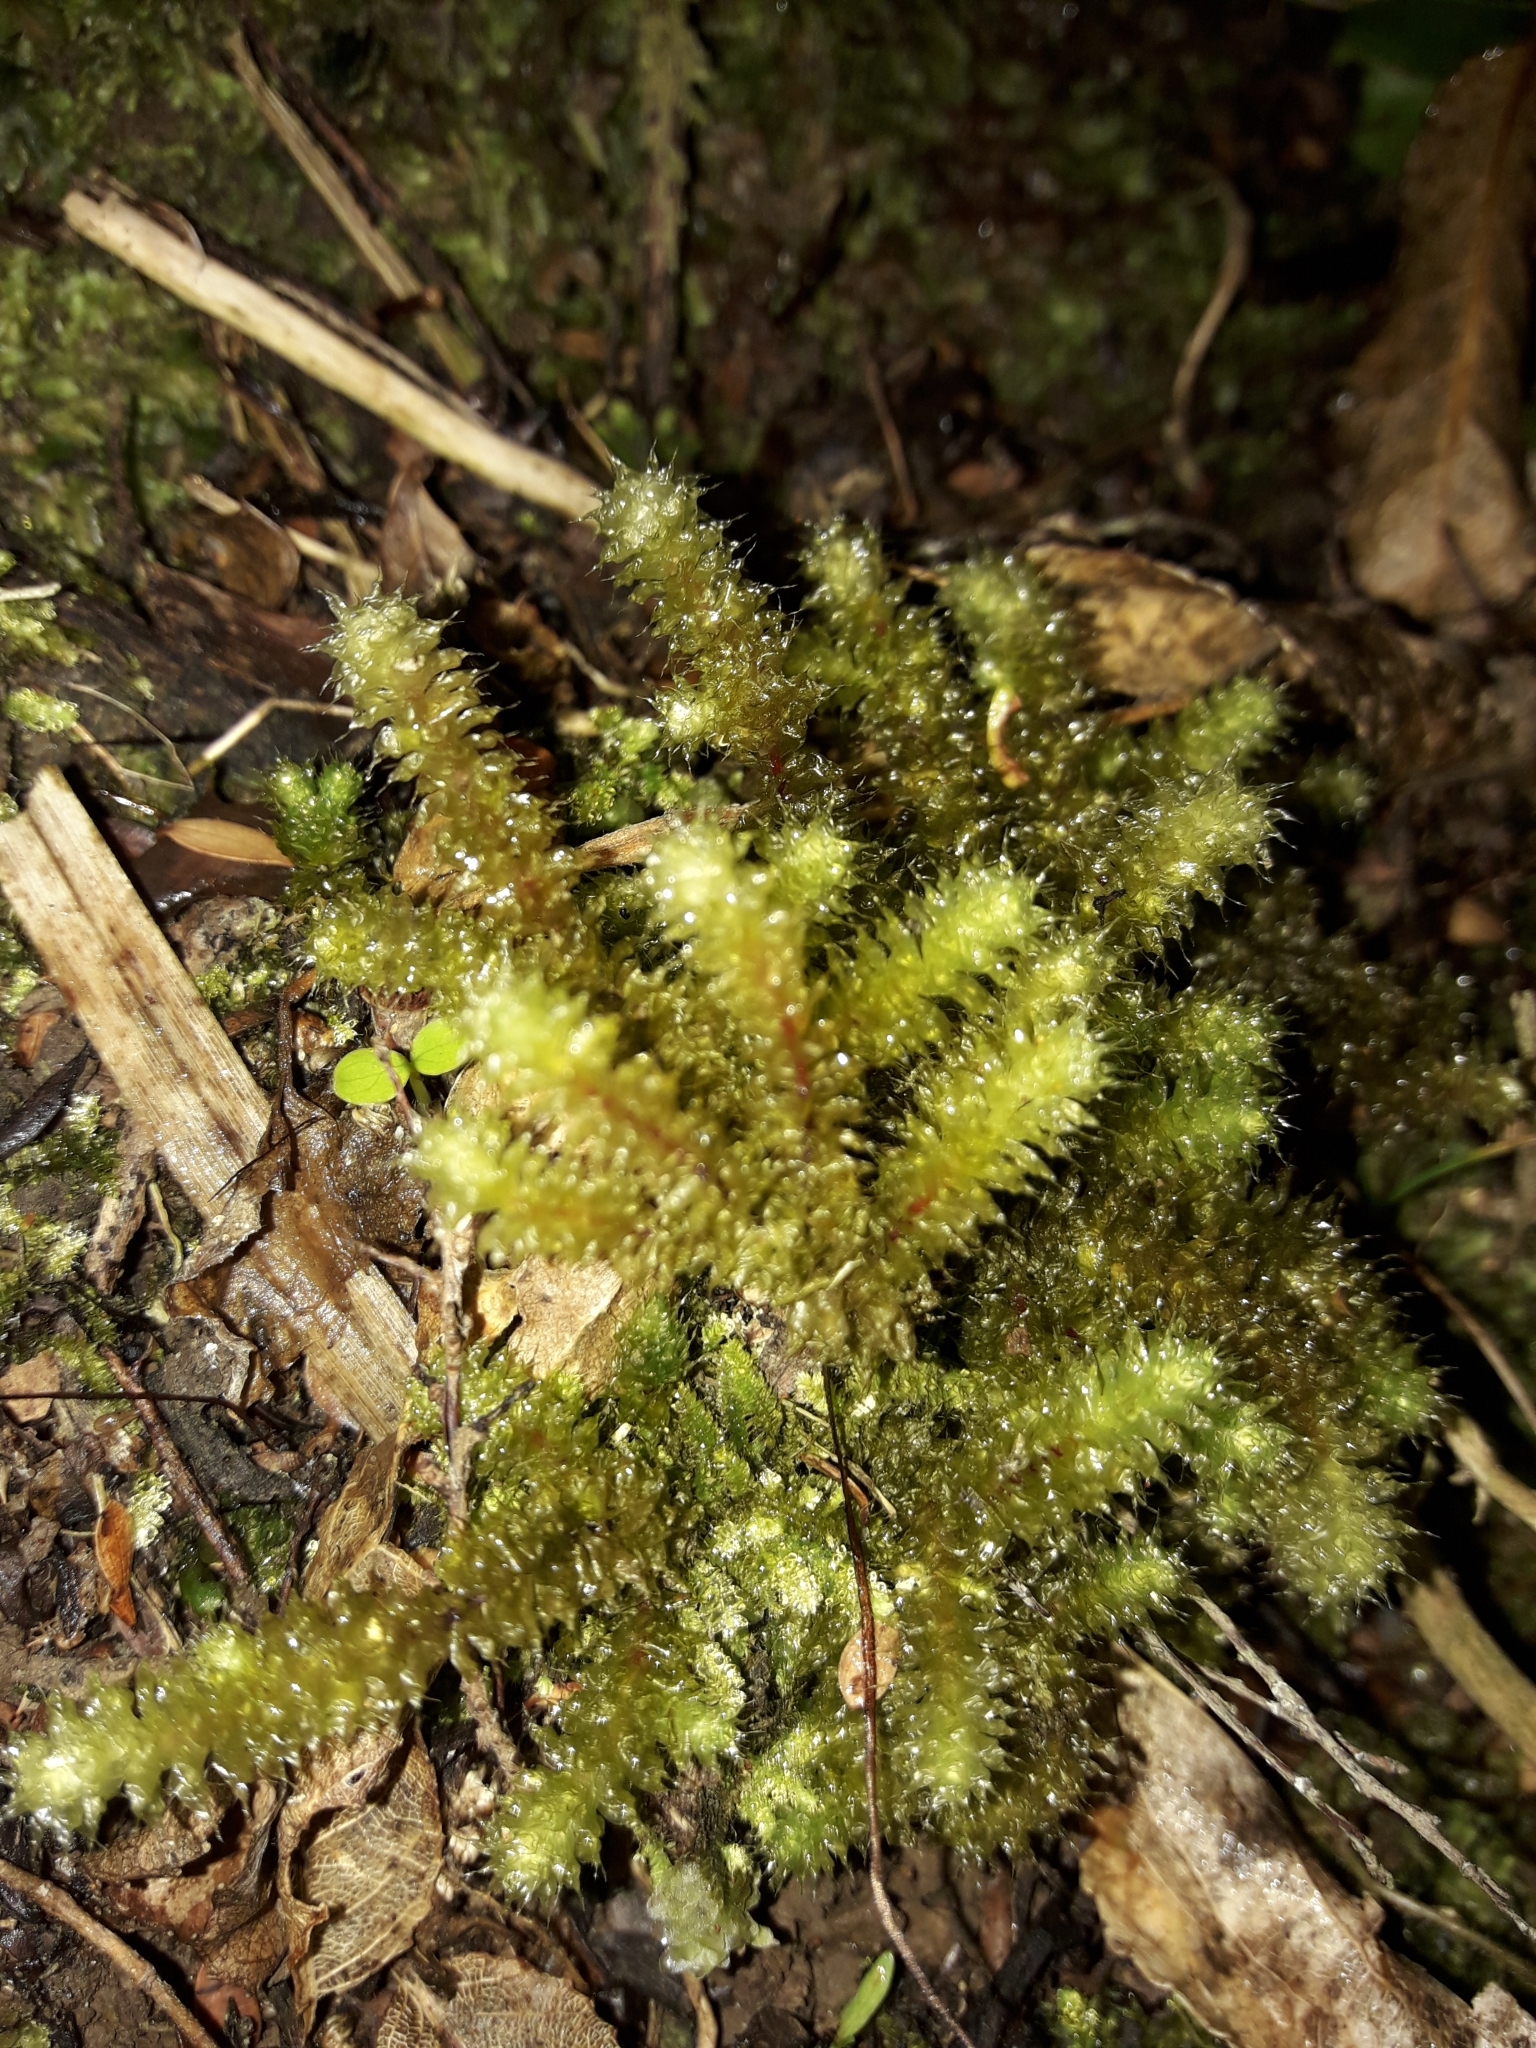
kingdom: Plantae
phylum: Bryophyta
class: Bryopsida
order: Ptychomniales
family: Ptychomniaceae
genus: Ptychomnion
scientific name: Ptychomnion aciculare
